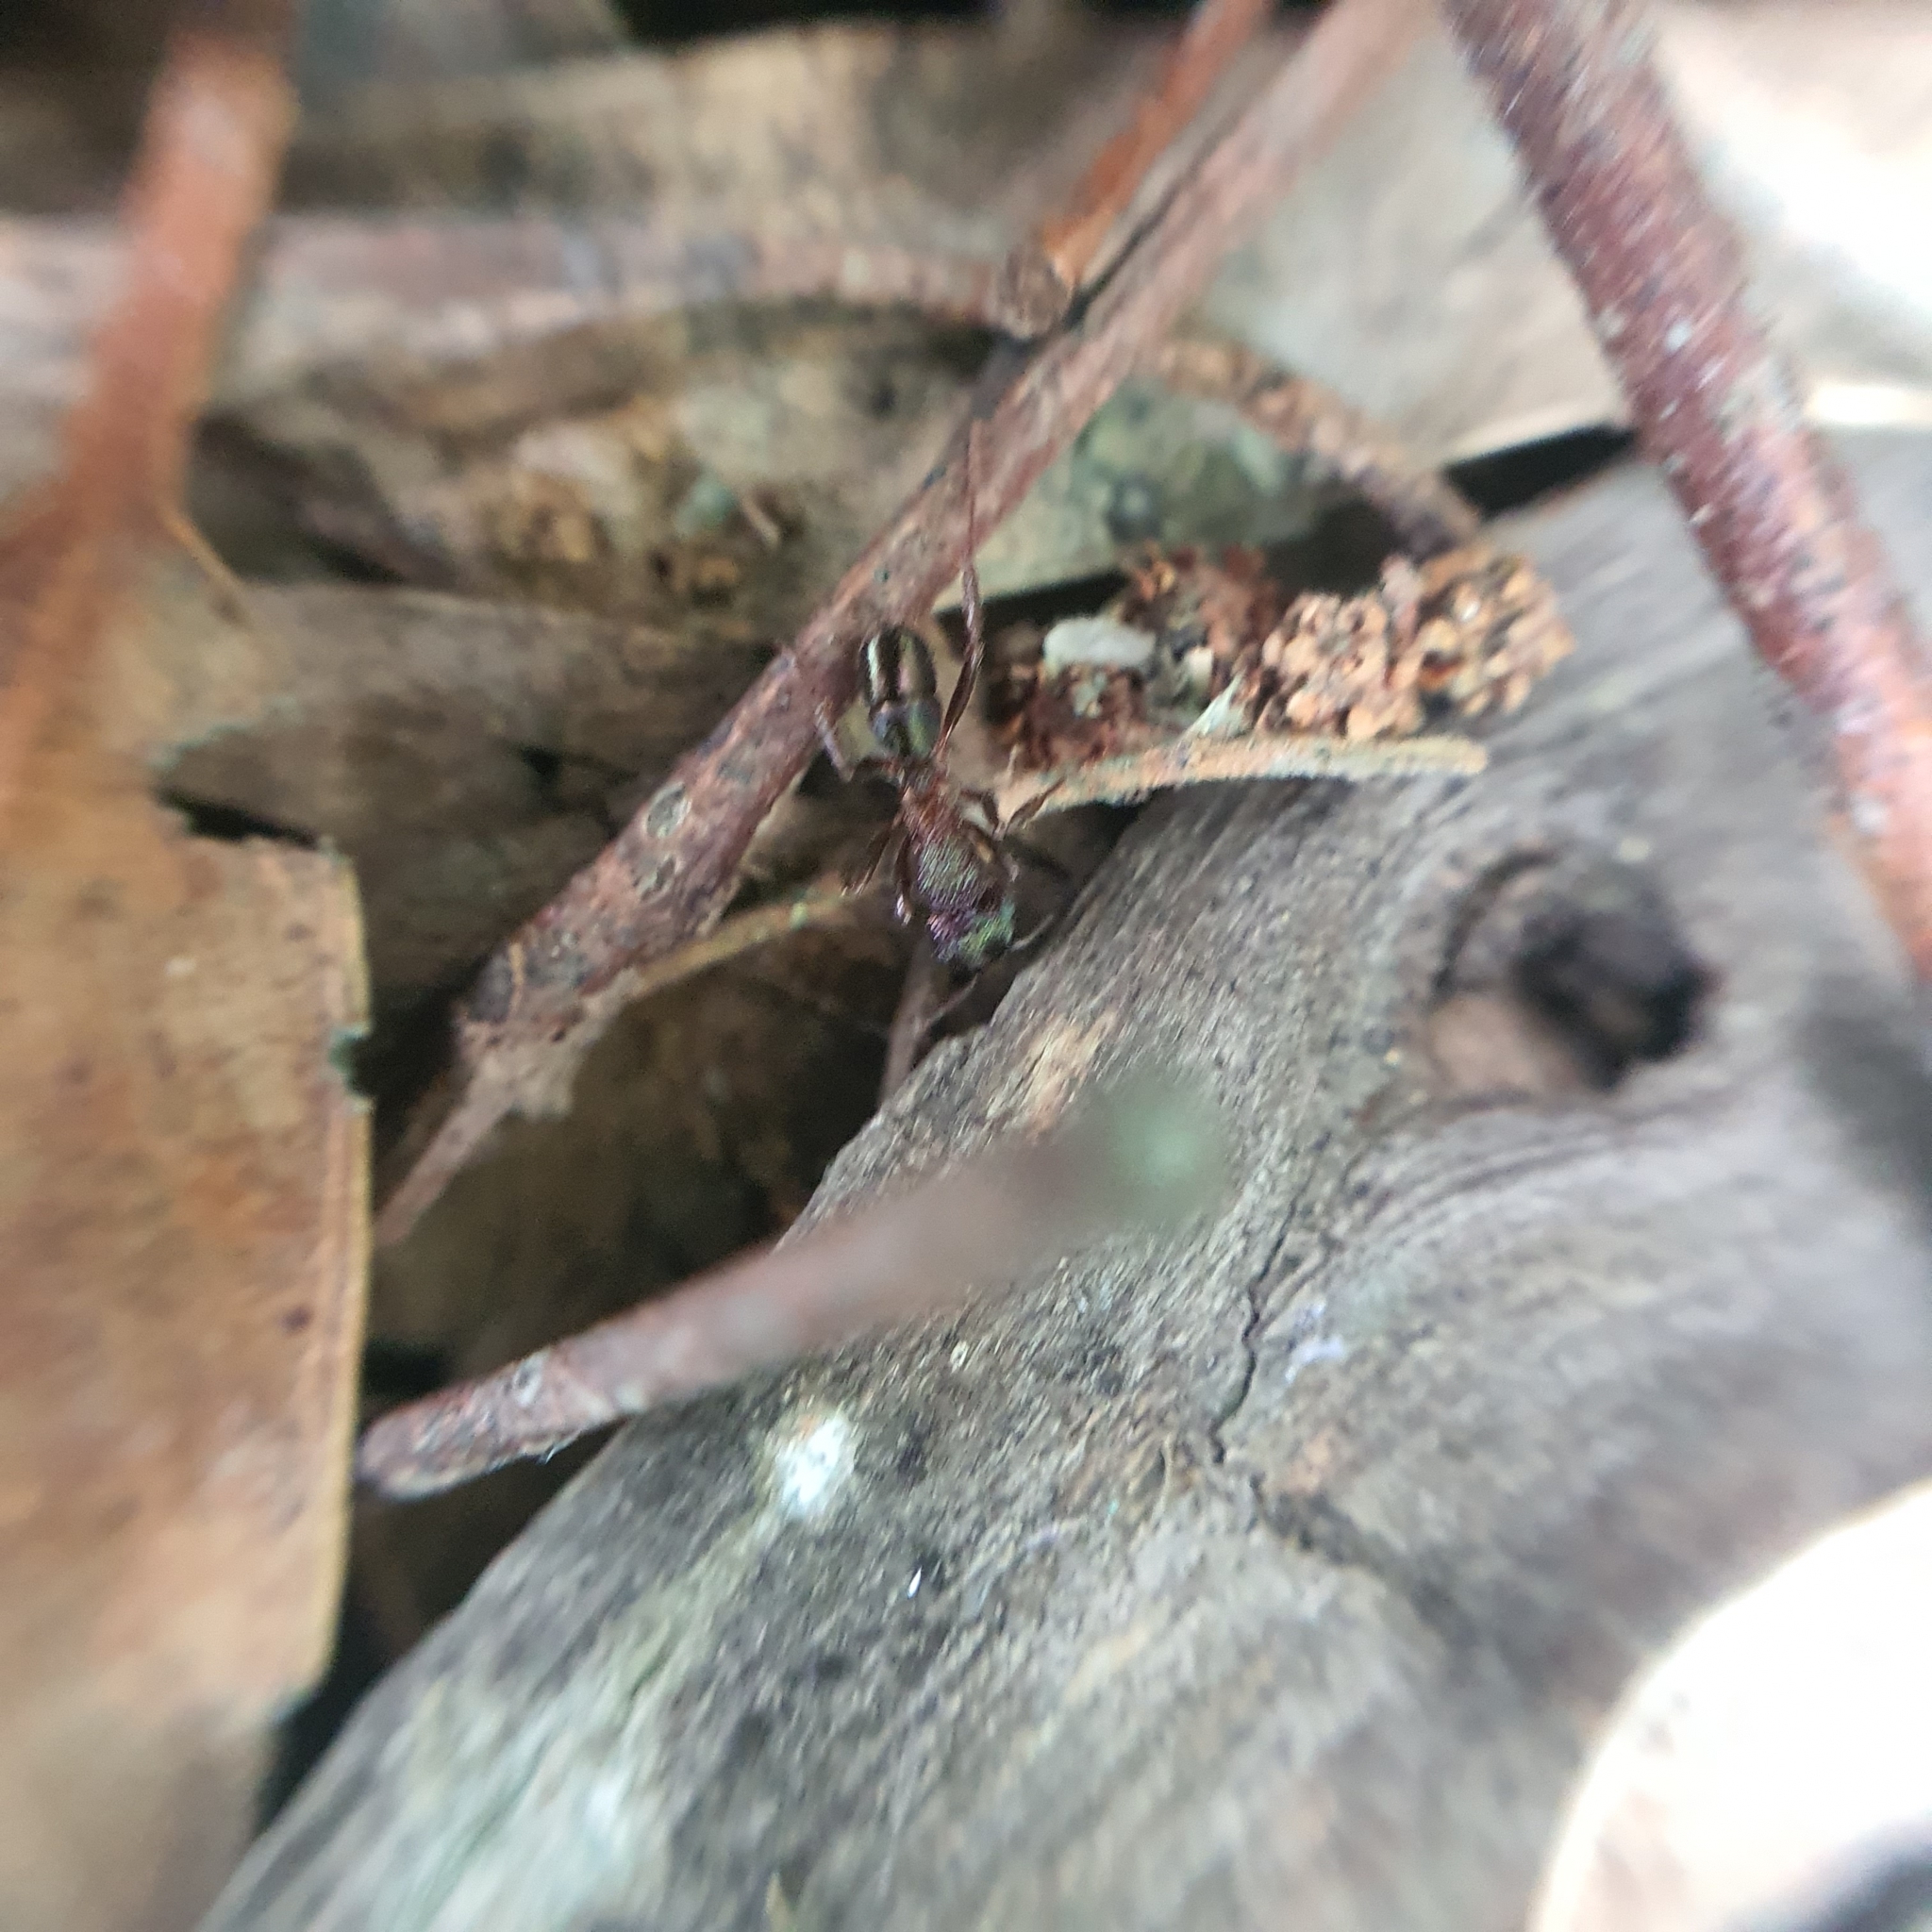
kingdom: Animalia
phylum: Arthropoda
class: Insecta
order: Hymenoptera
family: Formicidae
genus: Rhytidoponera
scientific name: Rhytidoponera metallica
